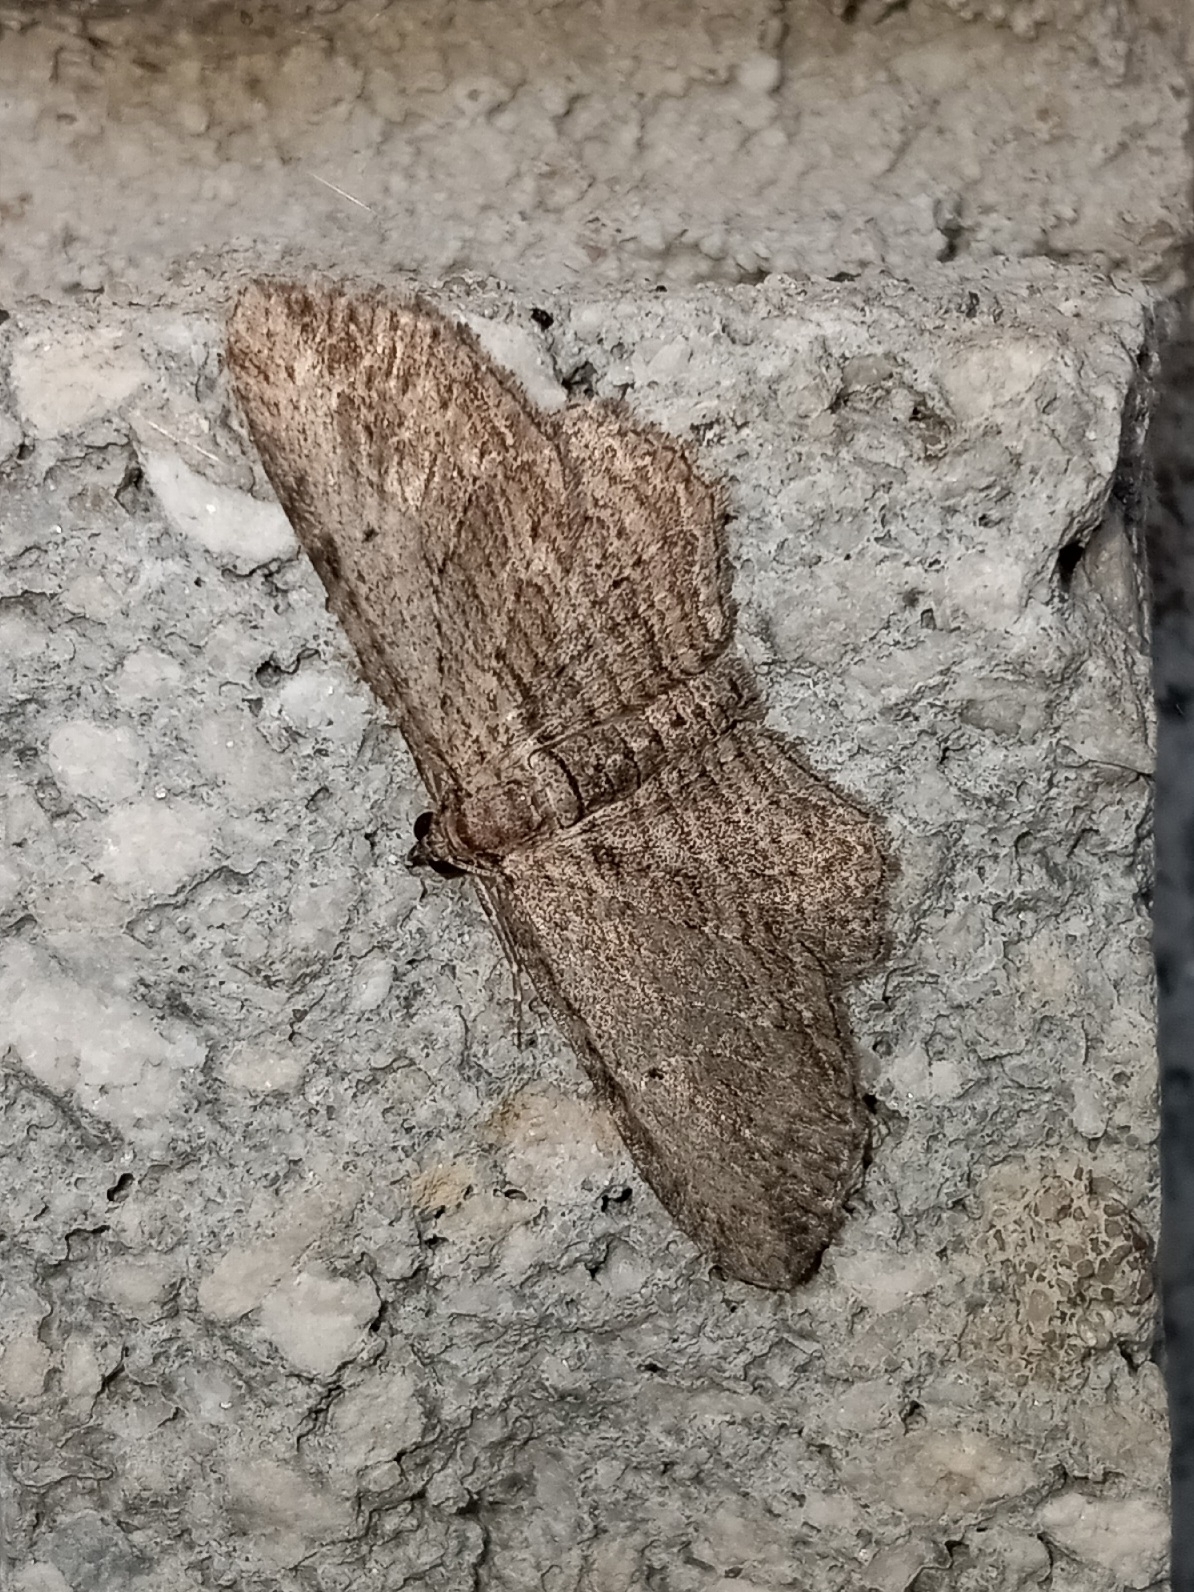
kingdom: Animalia
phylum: Arthropoda
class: Insecta
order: Lepidoptera
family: Geometridae
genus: Horisme
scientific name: Horisme intestinata
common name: Brown bark carpet
